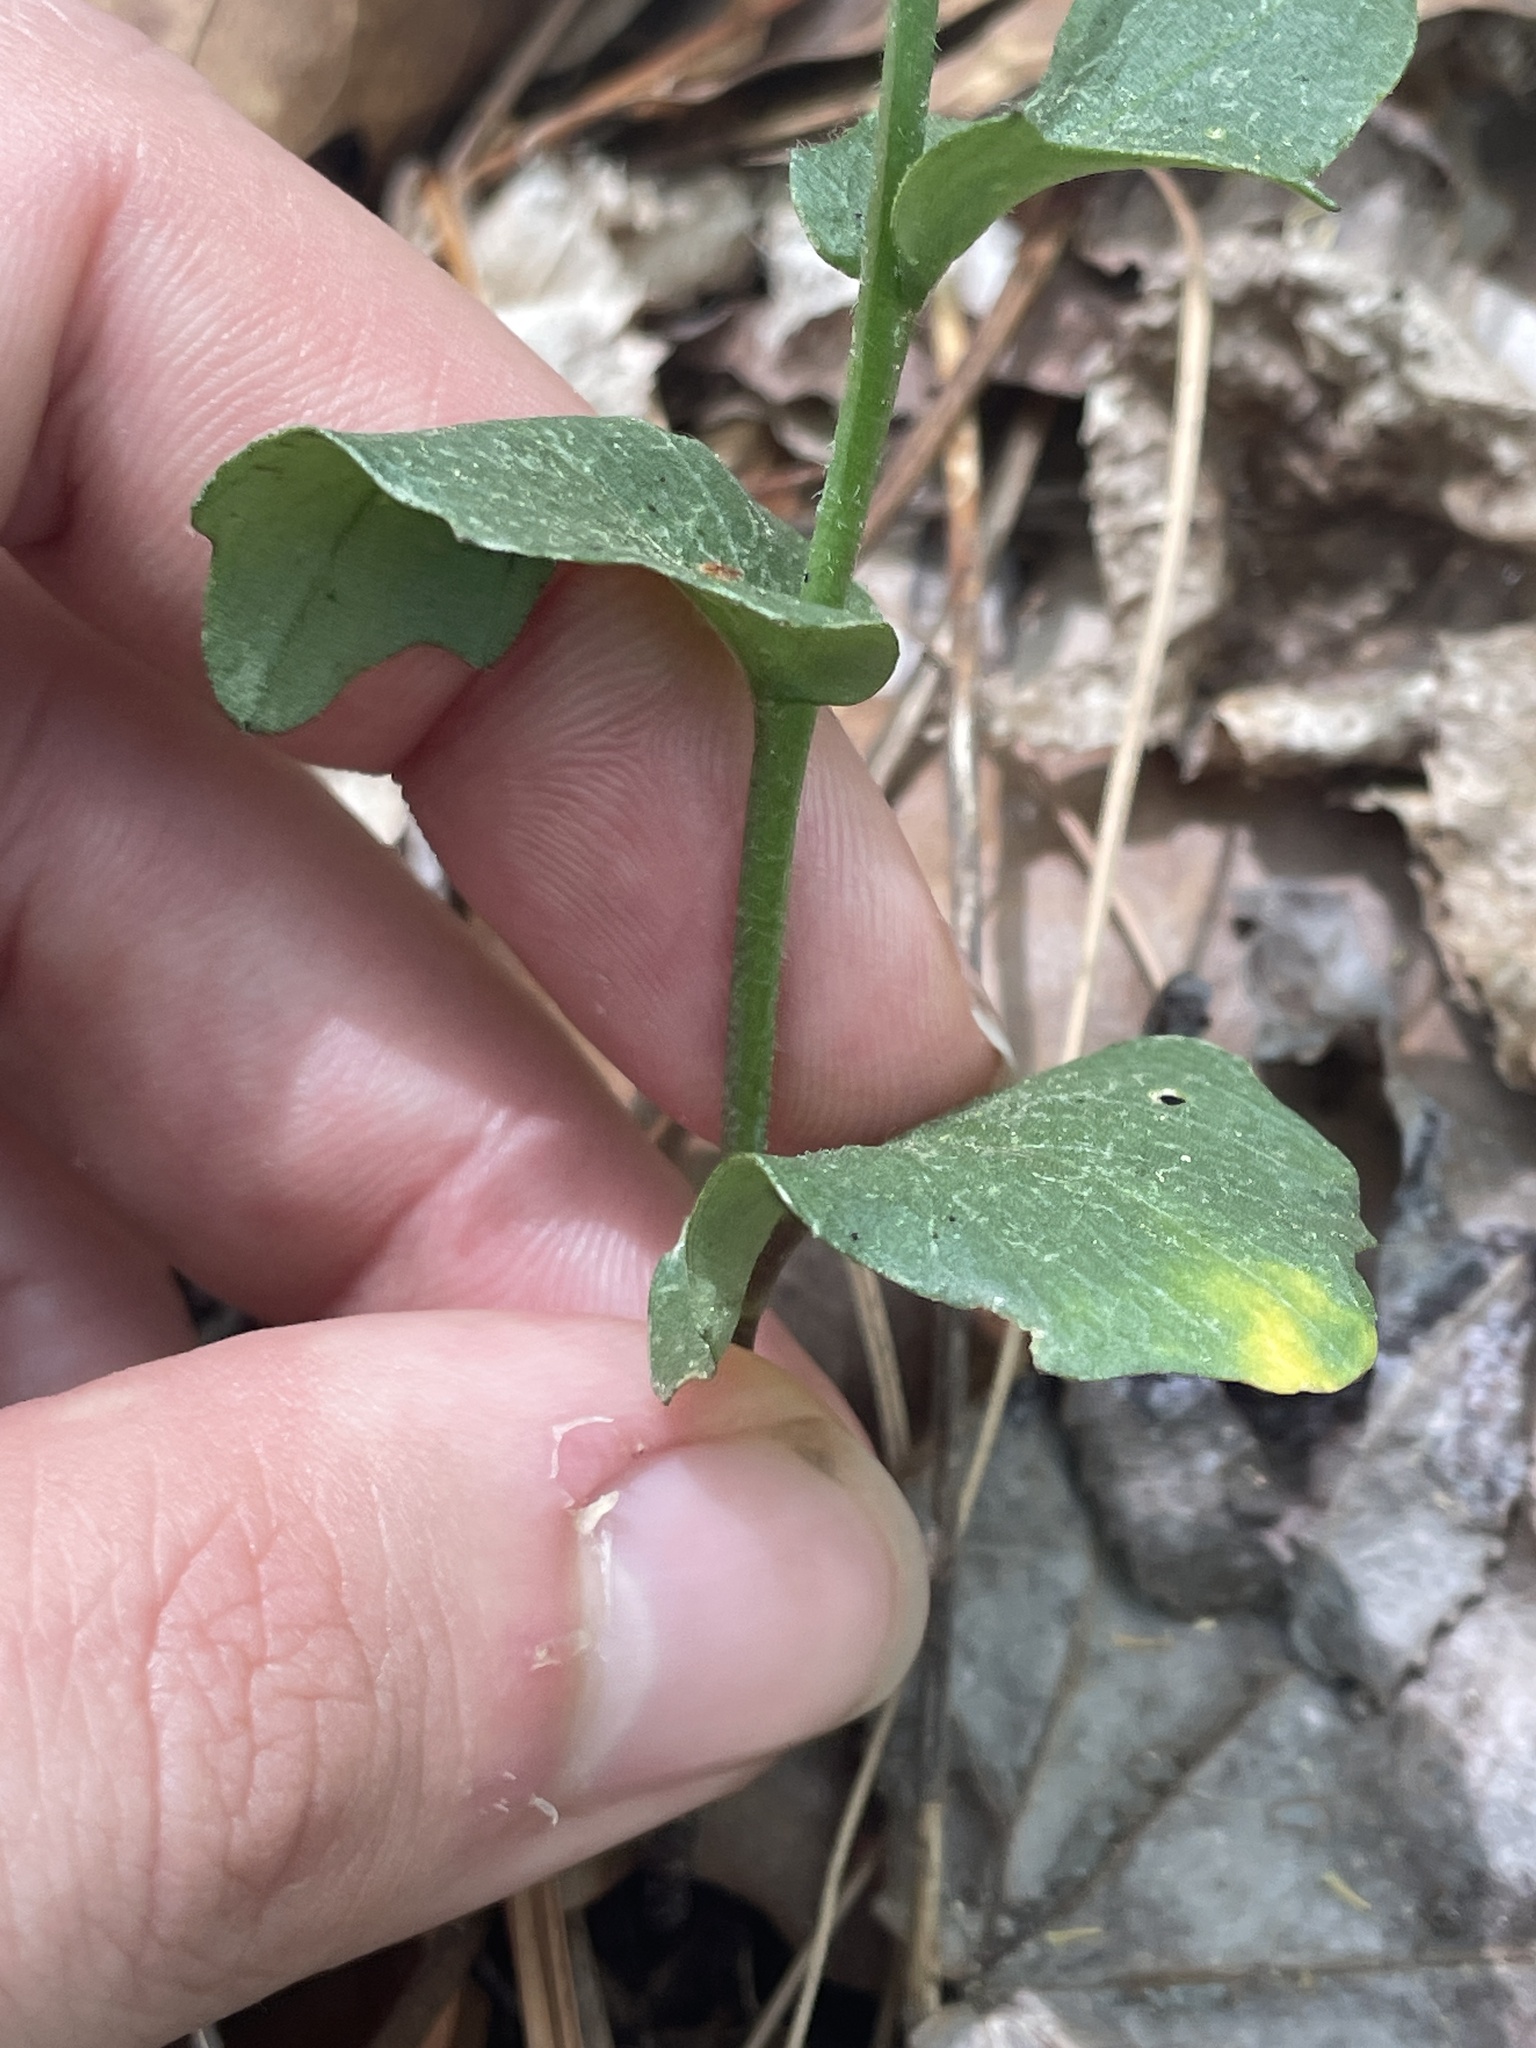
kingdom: Plantae
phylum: Tracheophyta
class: Magnoliopsida
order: Brassicales
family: Brassicaceae
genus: Cardamine
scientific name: Cardamine douglassii
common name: Purple cress
